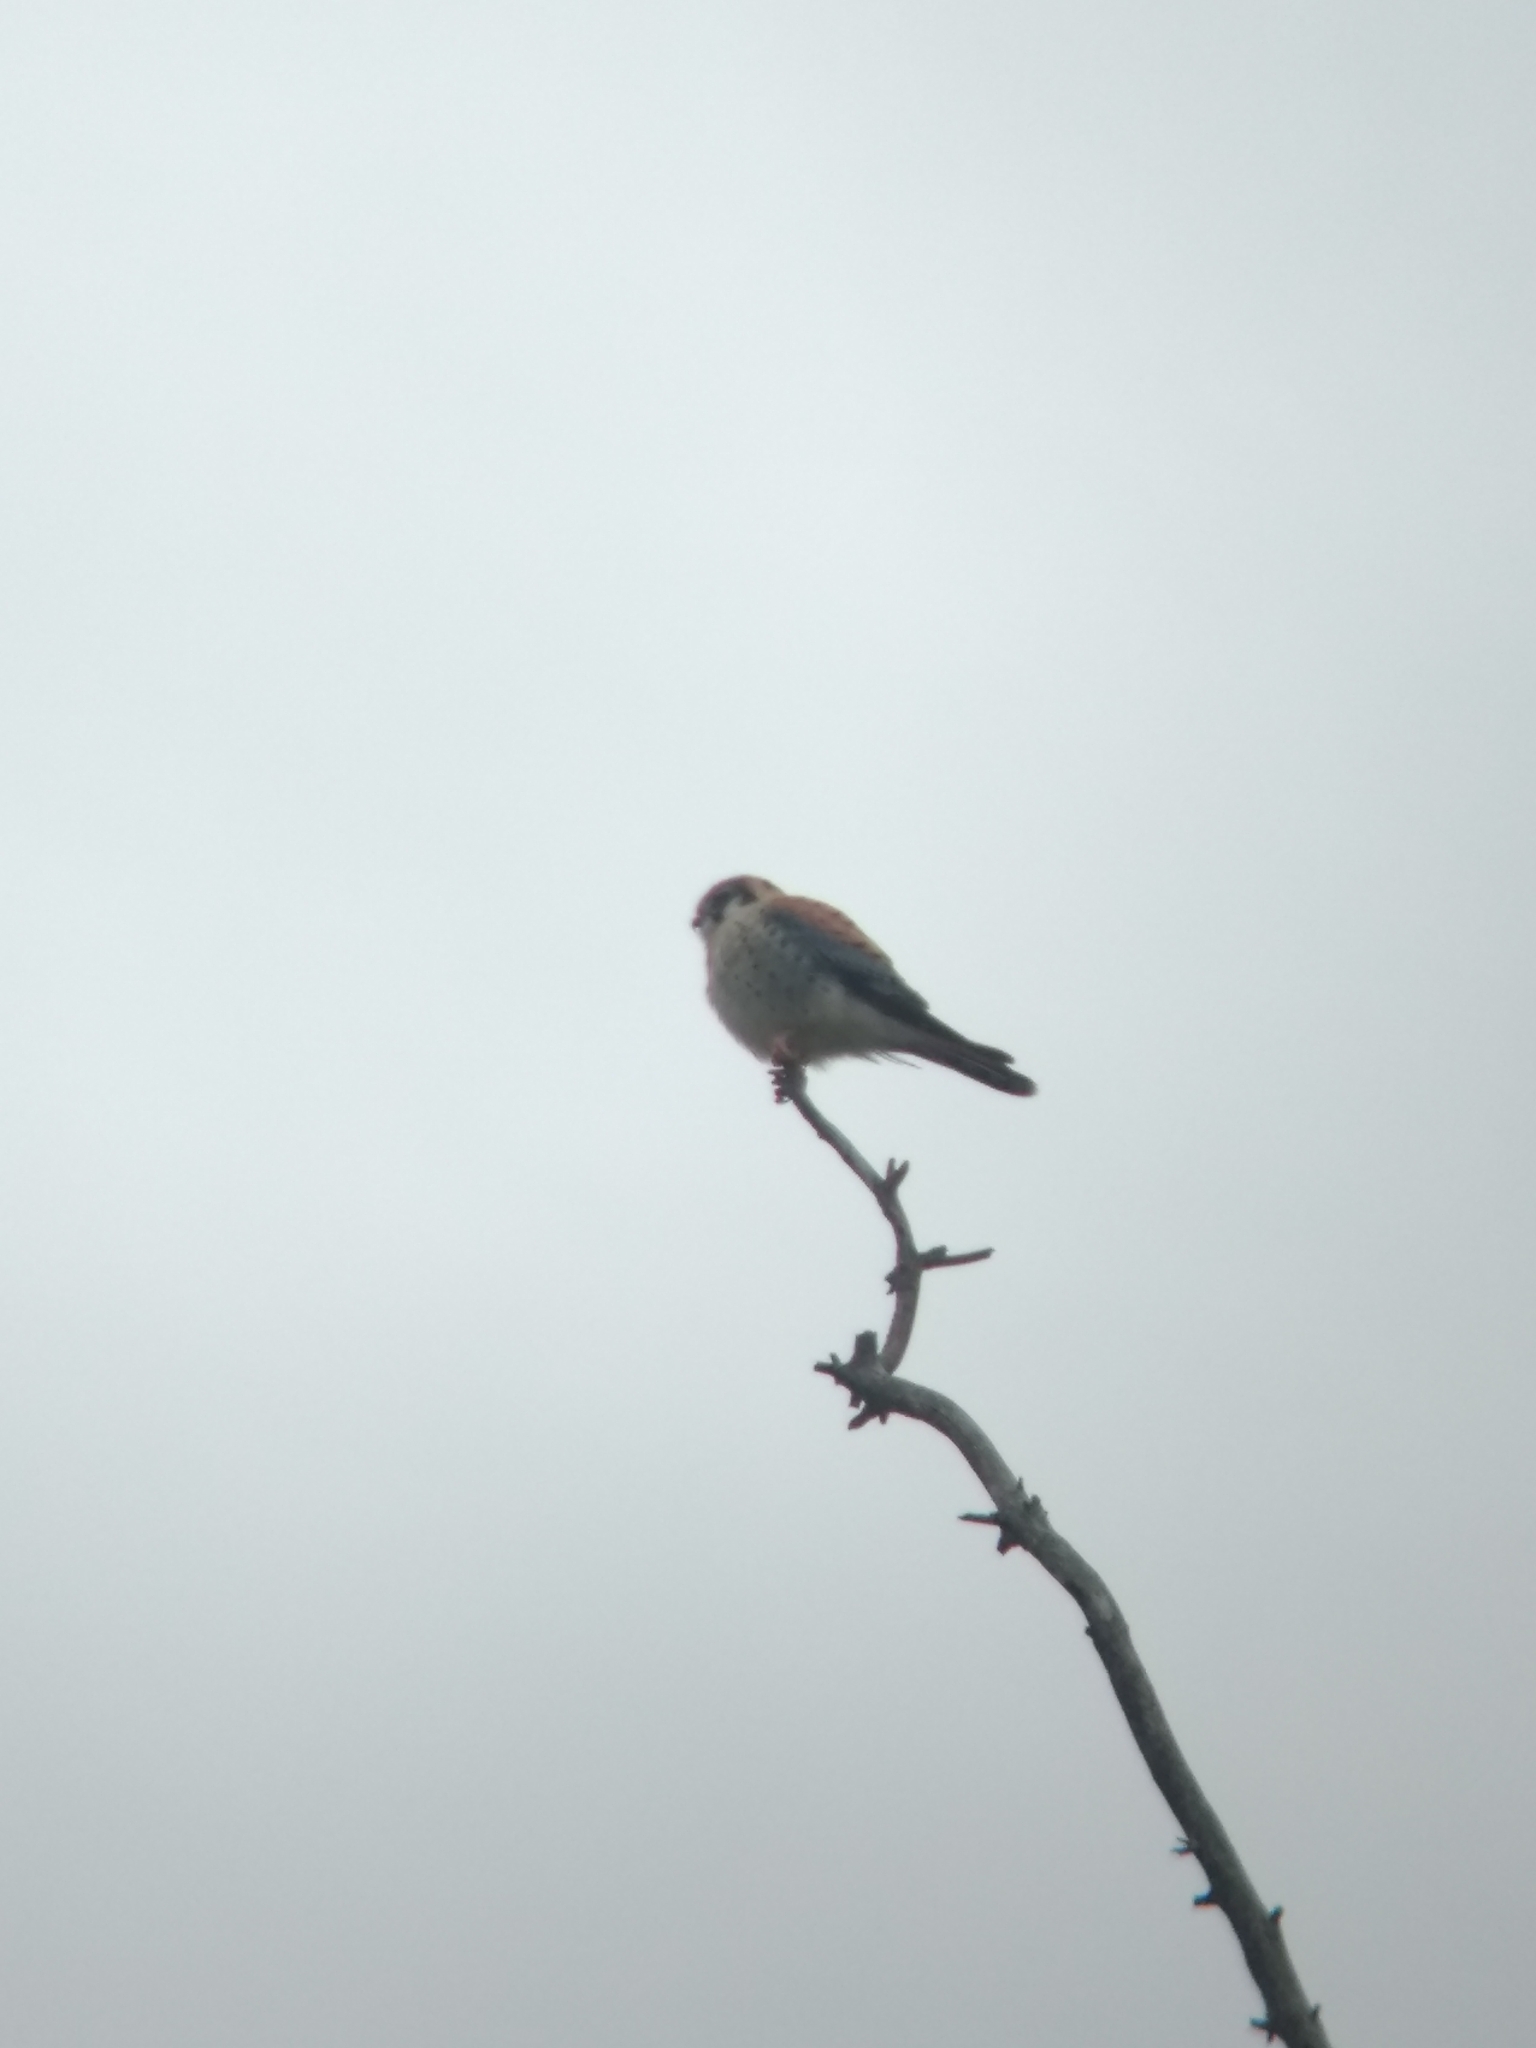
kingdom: Animalia
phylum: Chordata
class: Aves
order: Falconiformes
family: Falconidae
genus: Falco
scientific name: Falco sparverius
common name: American kestrel
